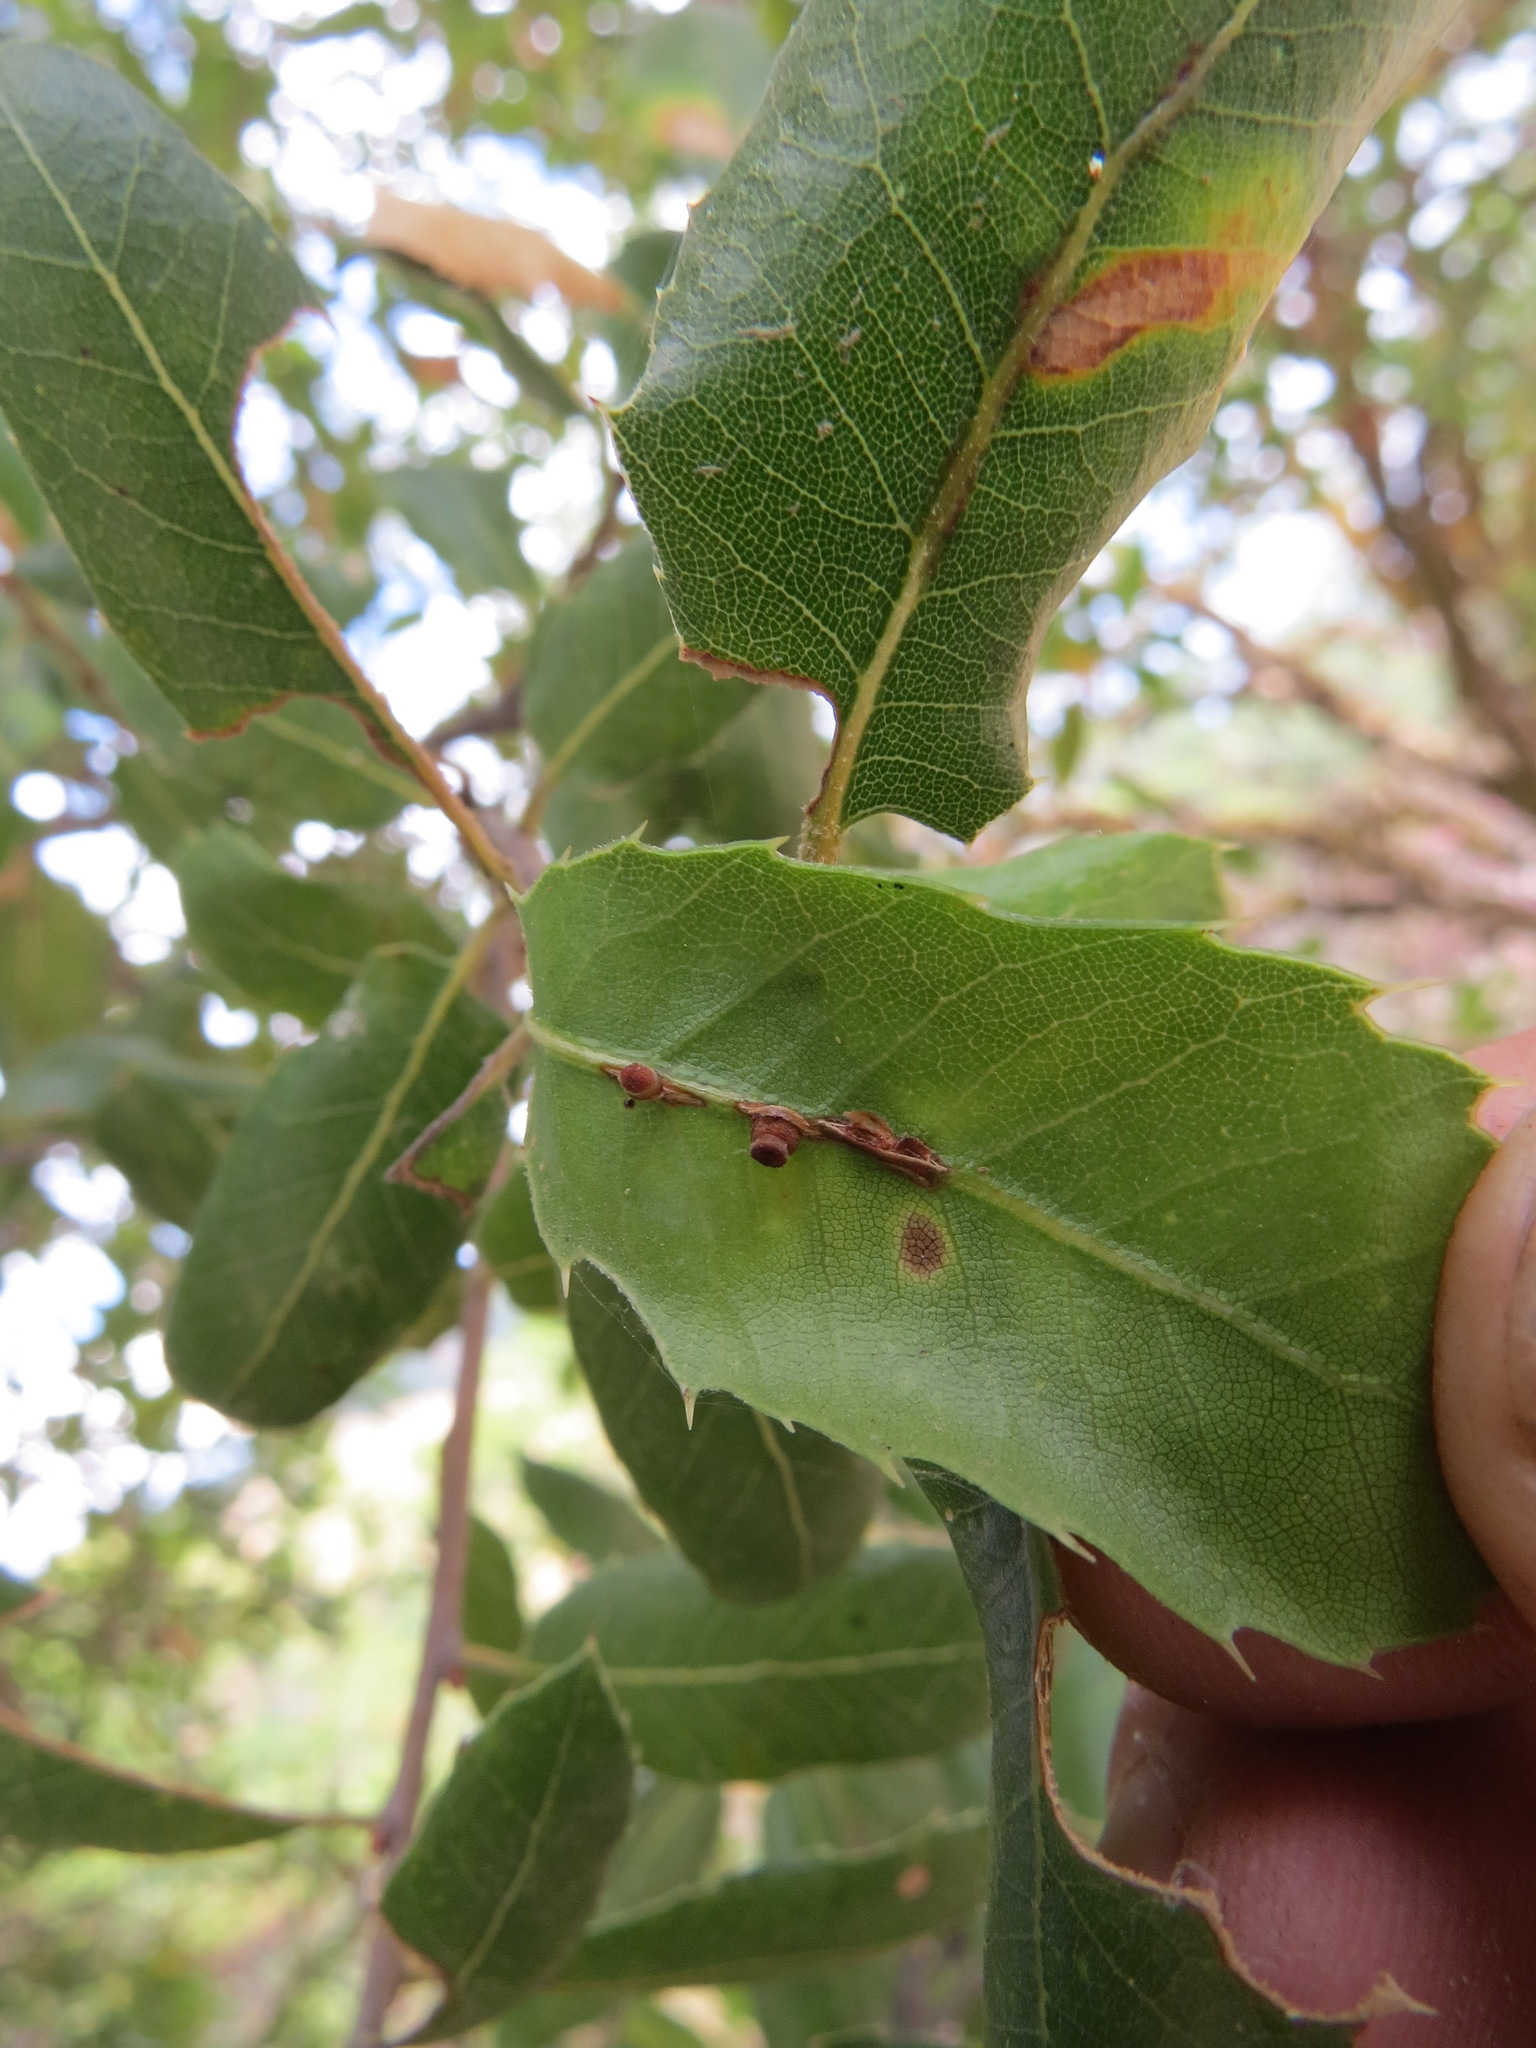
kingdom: Animalia
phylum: Arthropoda
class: Insecta
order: Hymenoptera
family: Cynipidae
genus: Callirhytis
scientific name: Callirhytis
